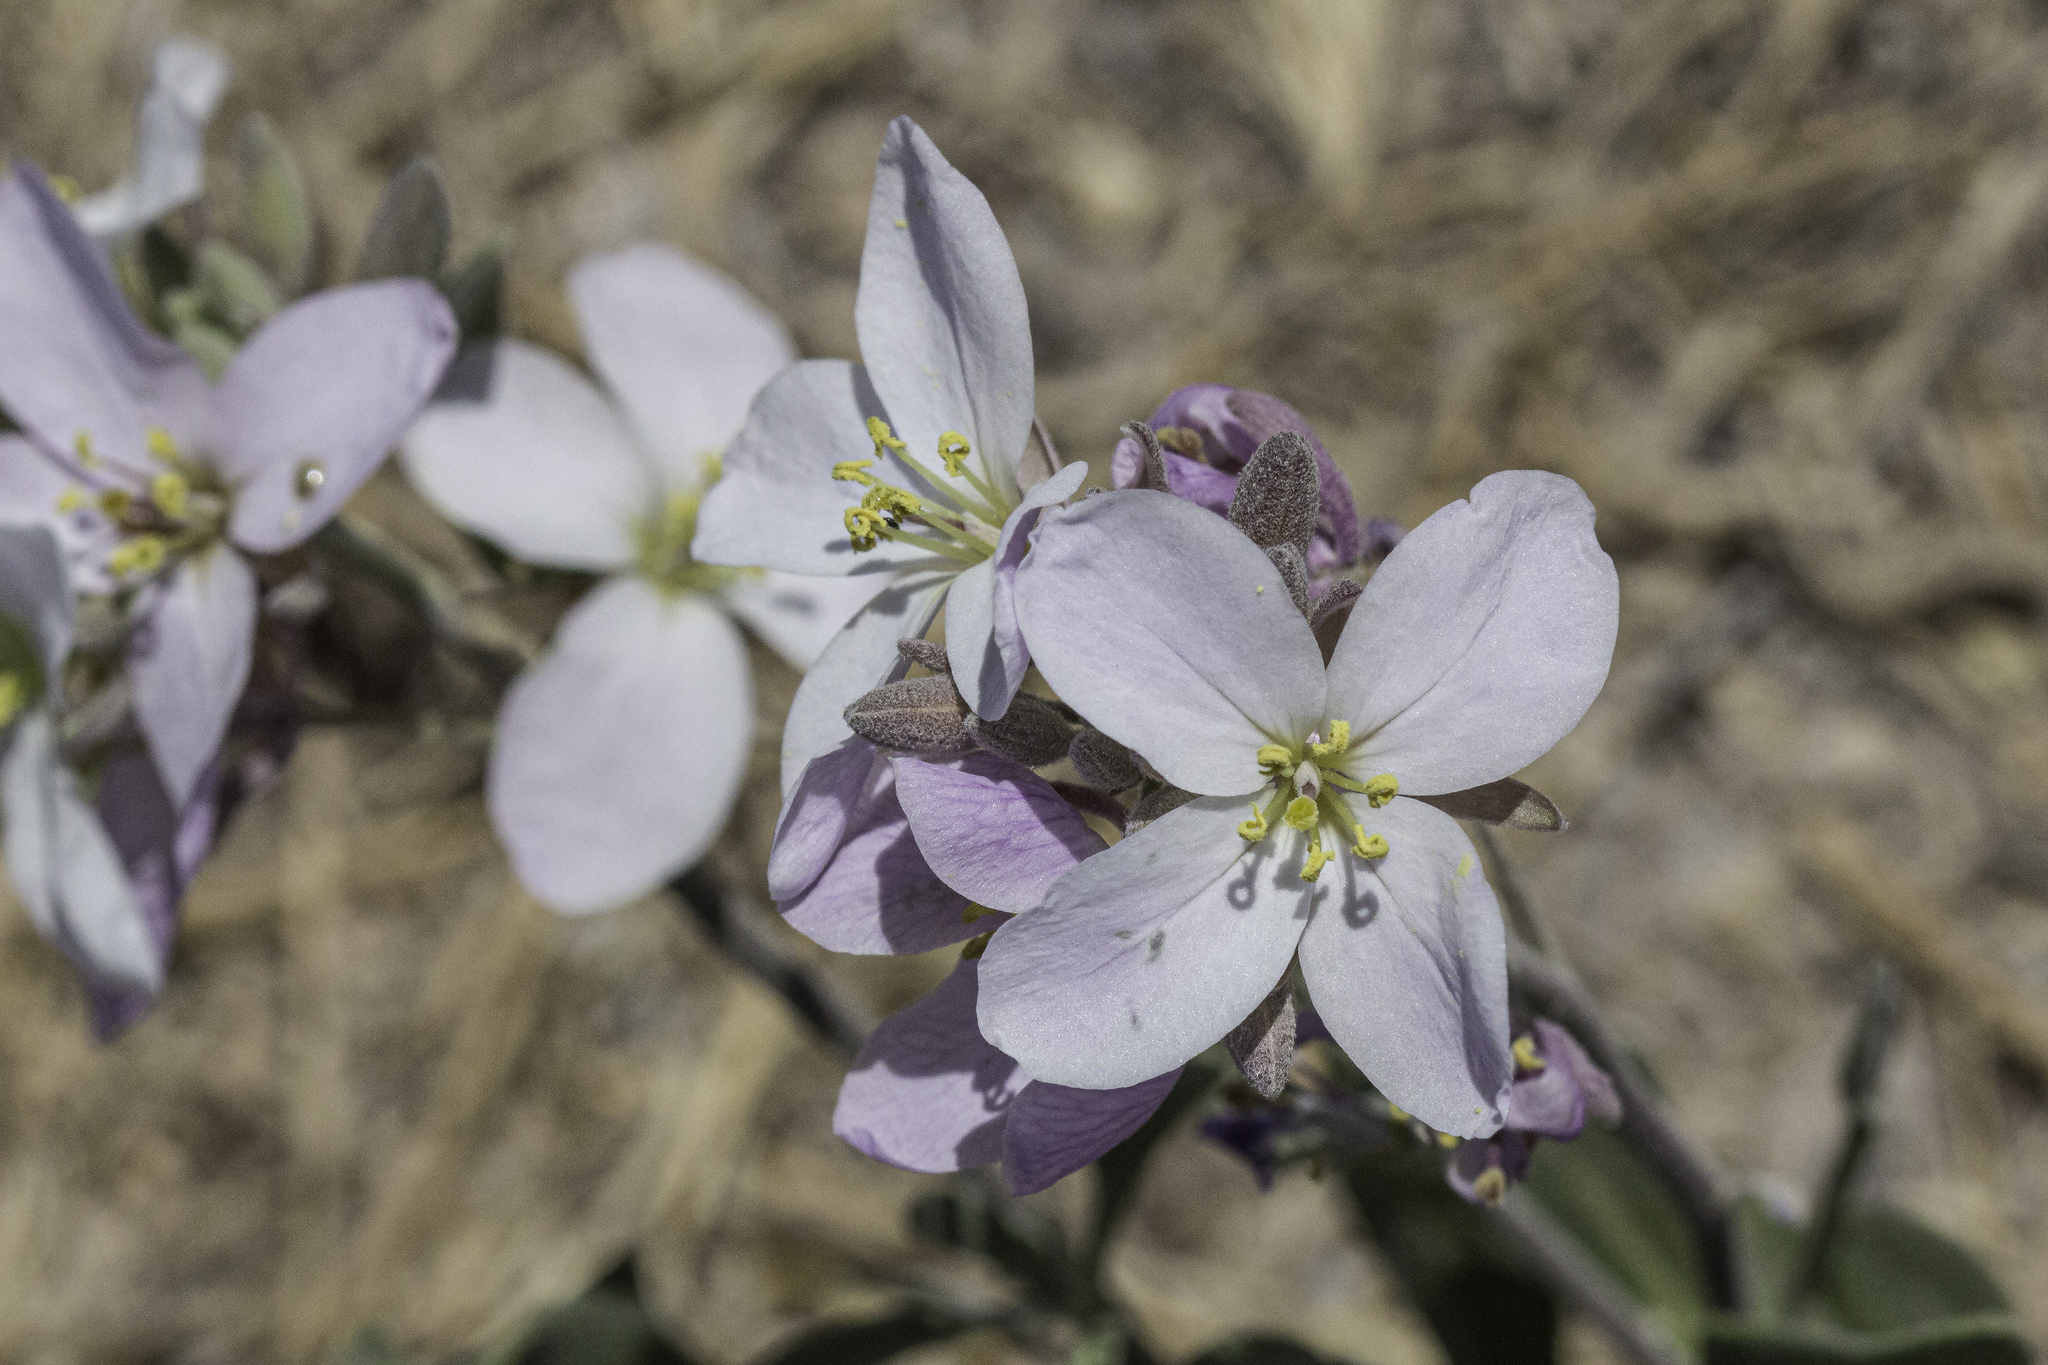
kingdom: Plantae
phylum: Tracheophyta
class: Magnoliopsida
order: Brassicales
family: Brassicaceae
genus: Nerisyrenia
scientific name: Nerisyrenia camporum
